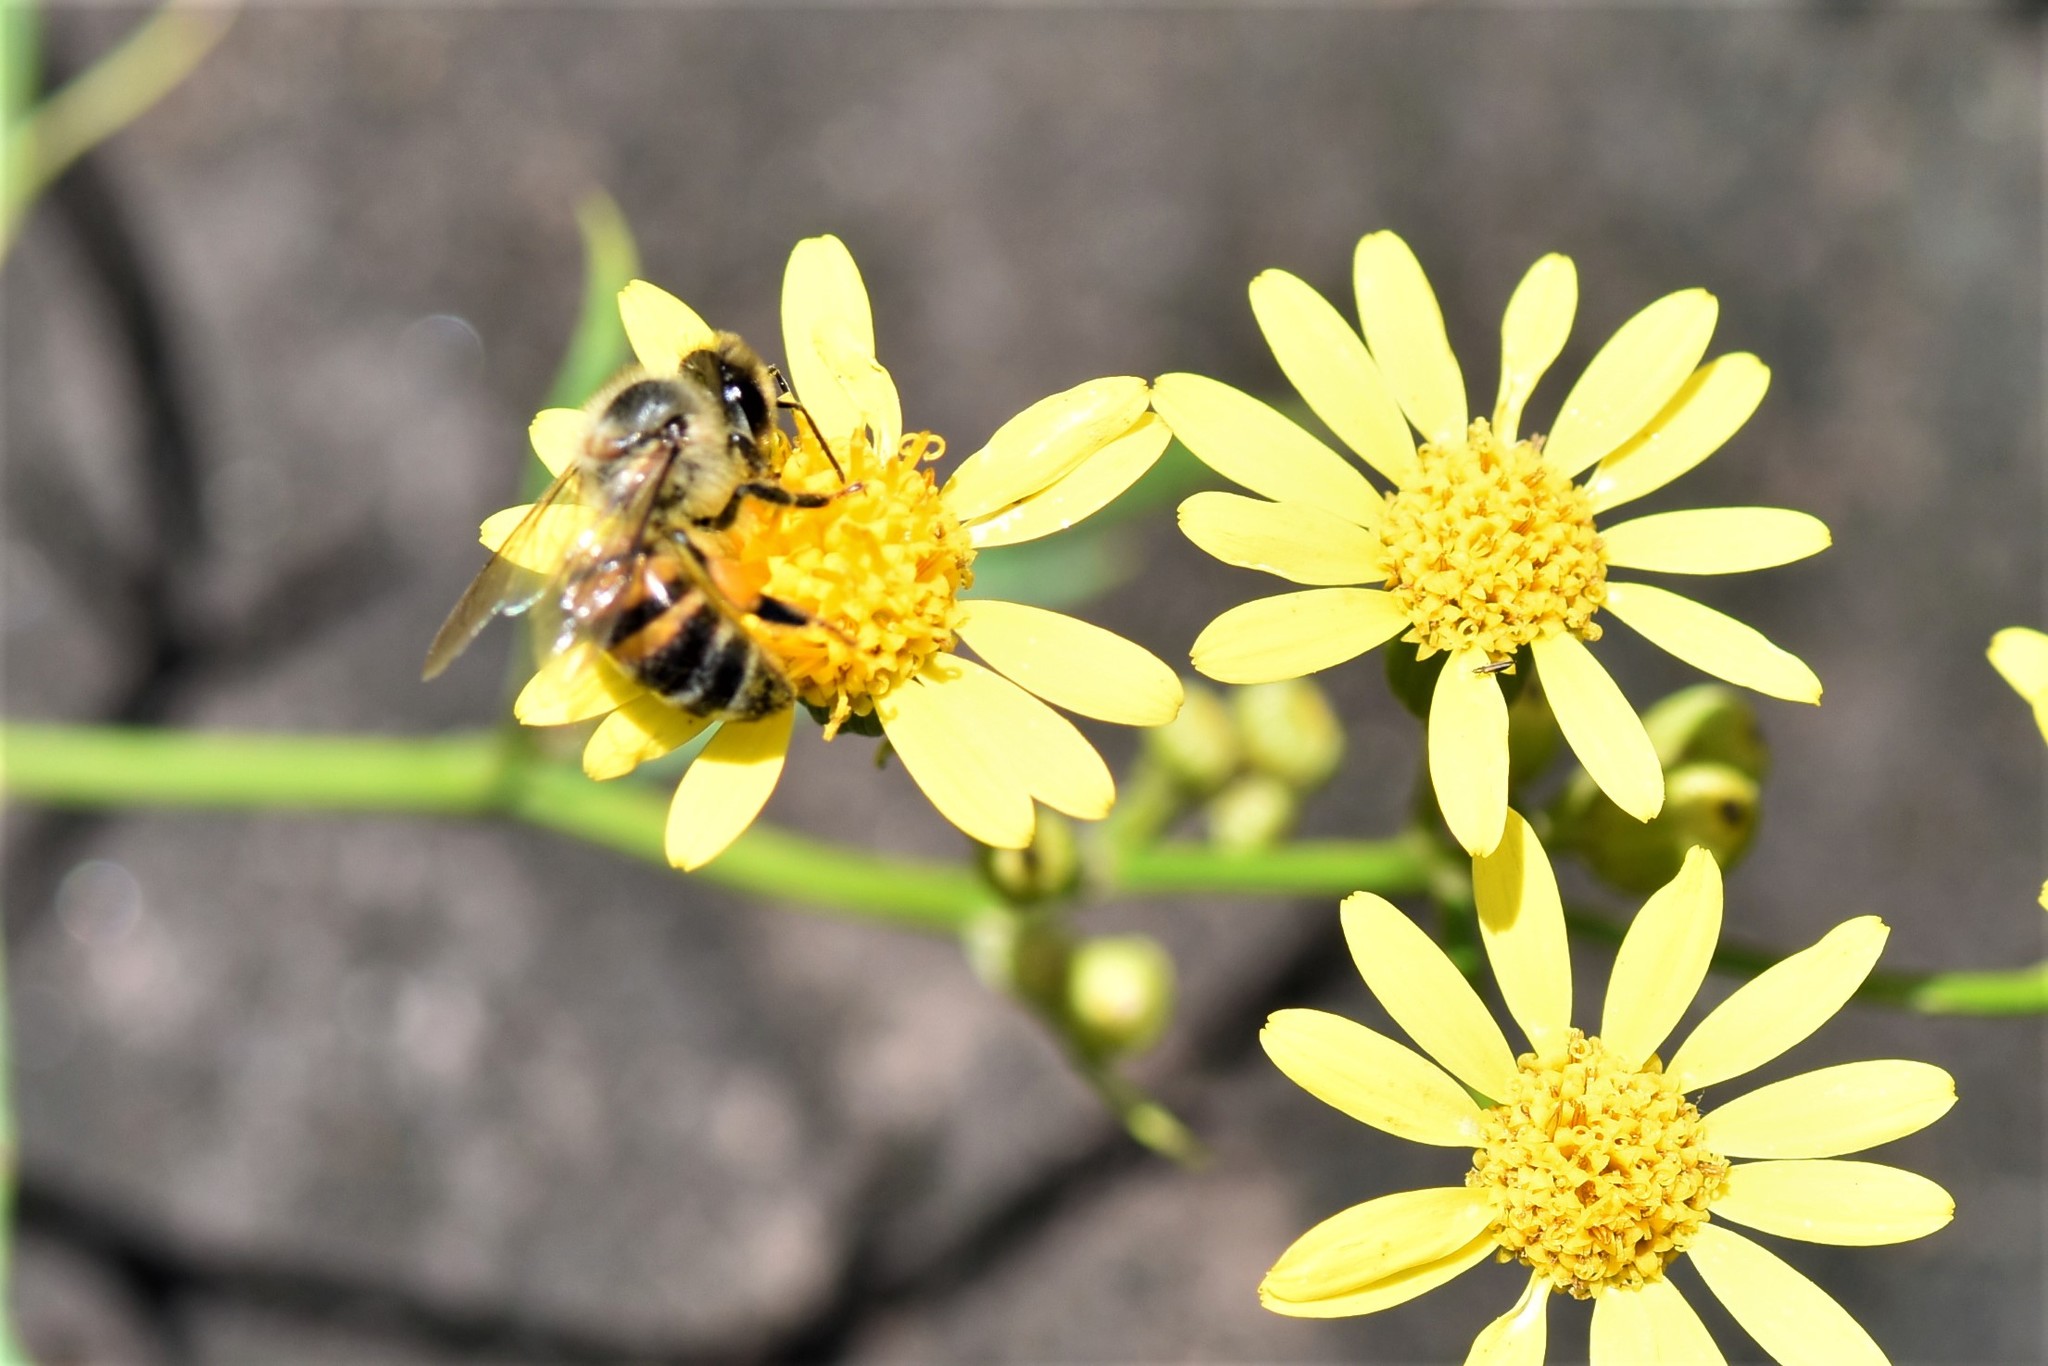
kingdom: Animalia
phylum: Arthropoda
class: Insecta
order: Hymenoptera
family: Apidae
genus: Apis
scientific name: Apis mellifera
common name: Honey bee
